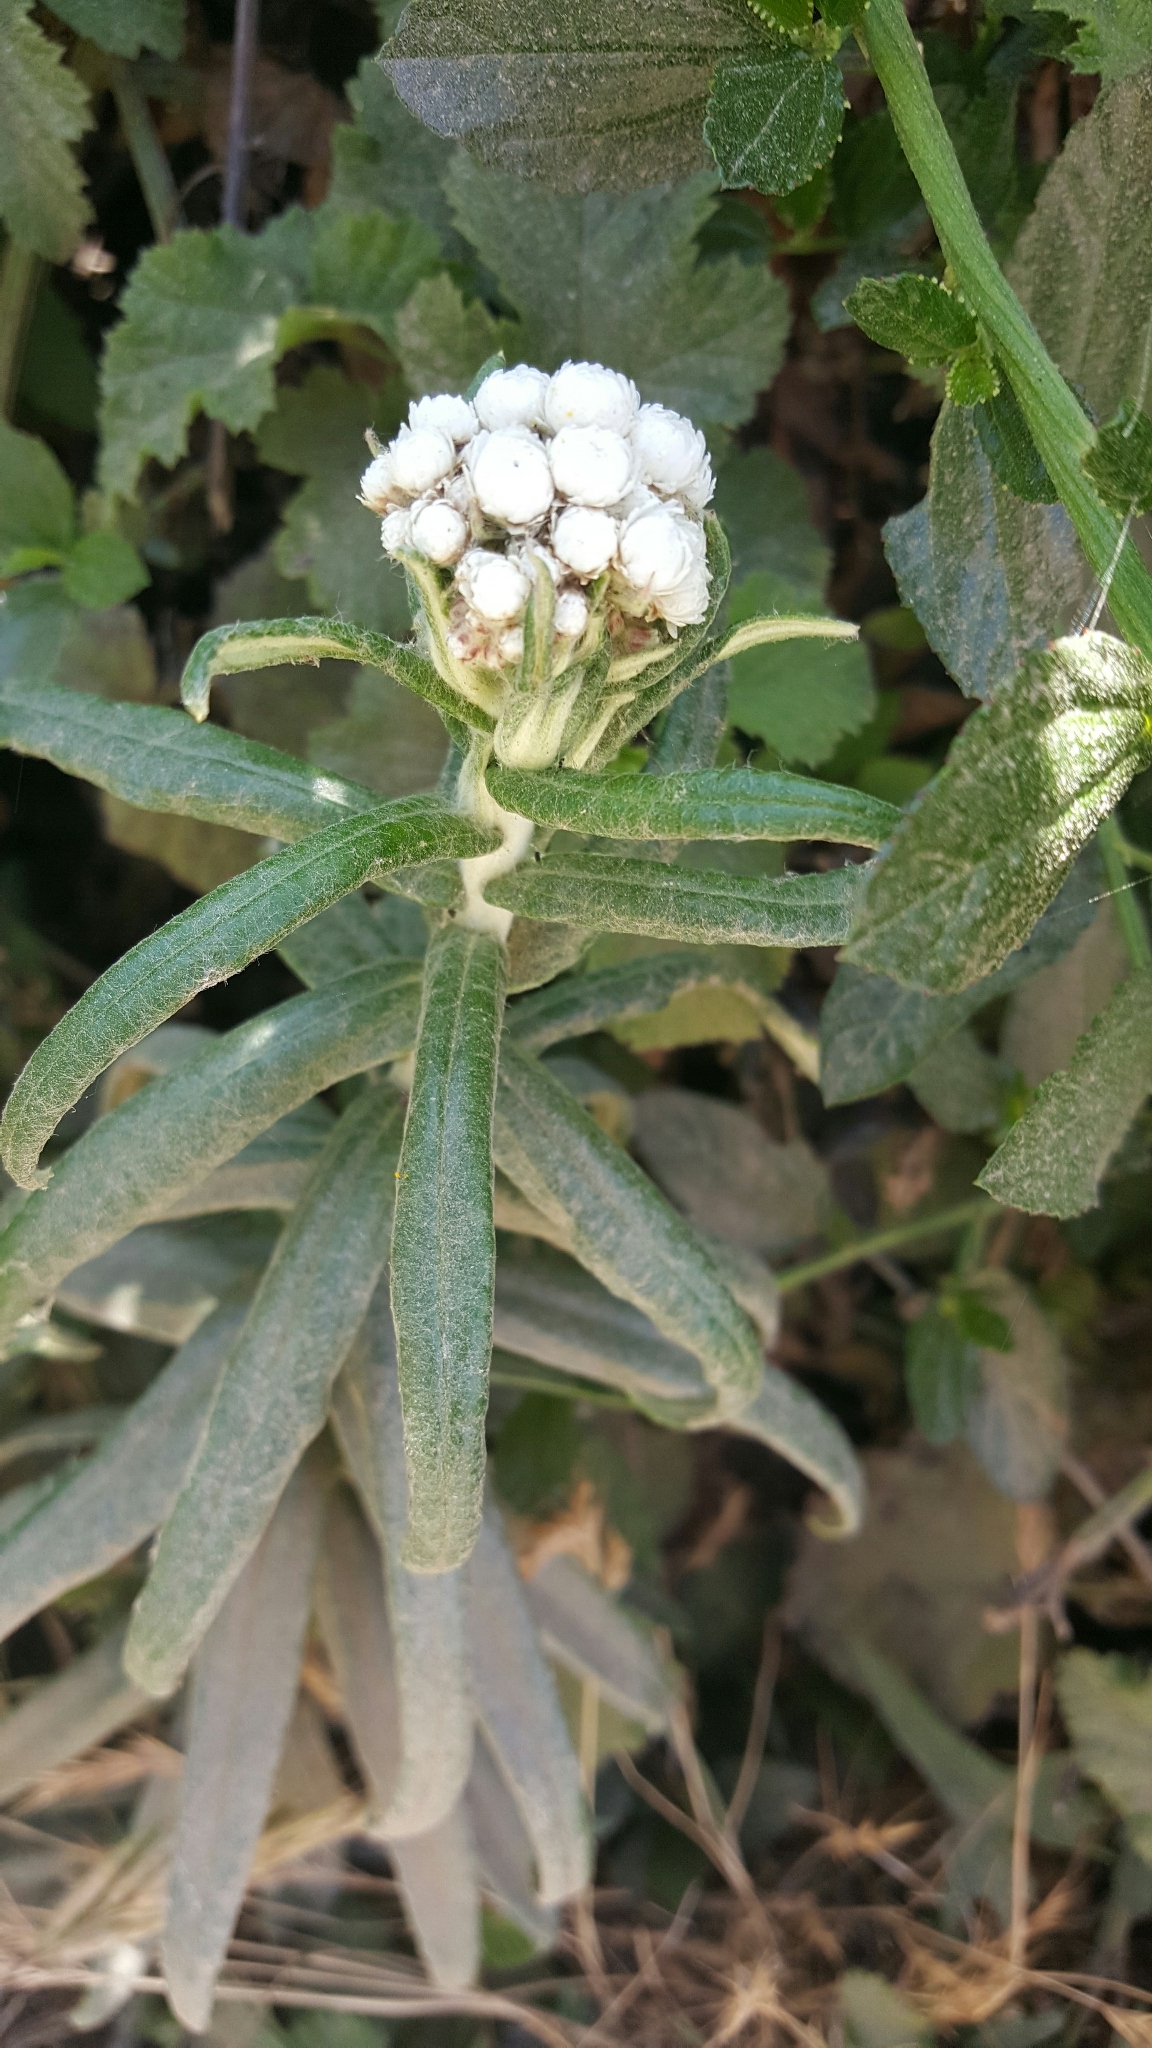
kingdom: Plantae
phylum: Tracheophyta
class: Magnoliopsida
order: Asterales
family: Asteraceae
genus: Anaphalis
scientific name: Anaphalis margaritacea
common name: Pearly everlasting
